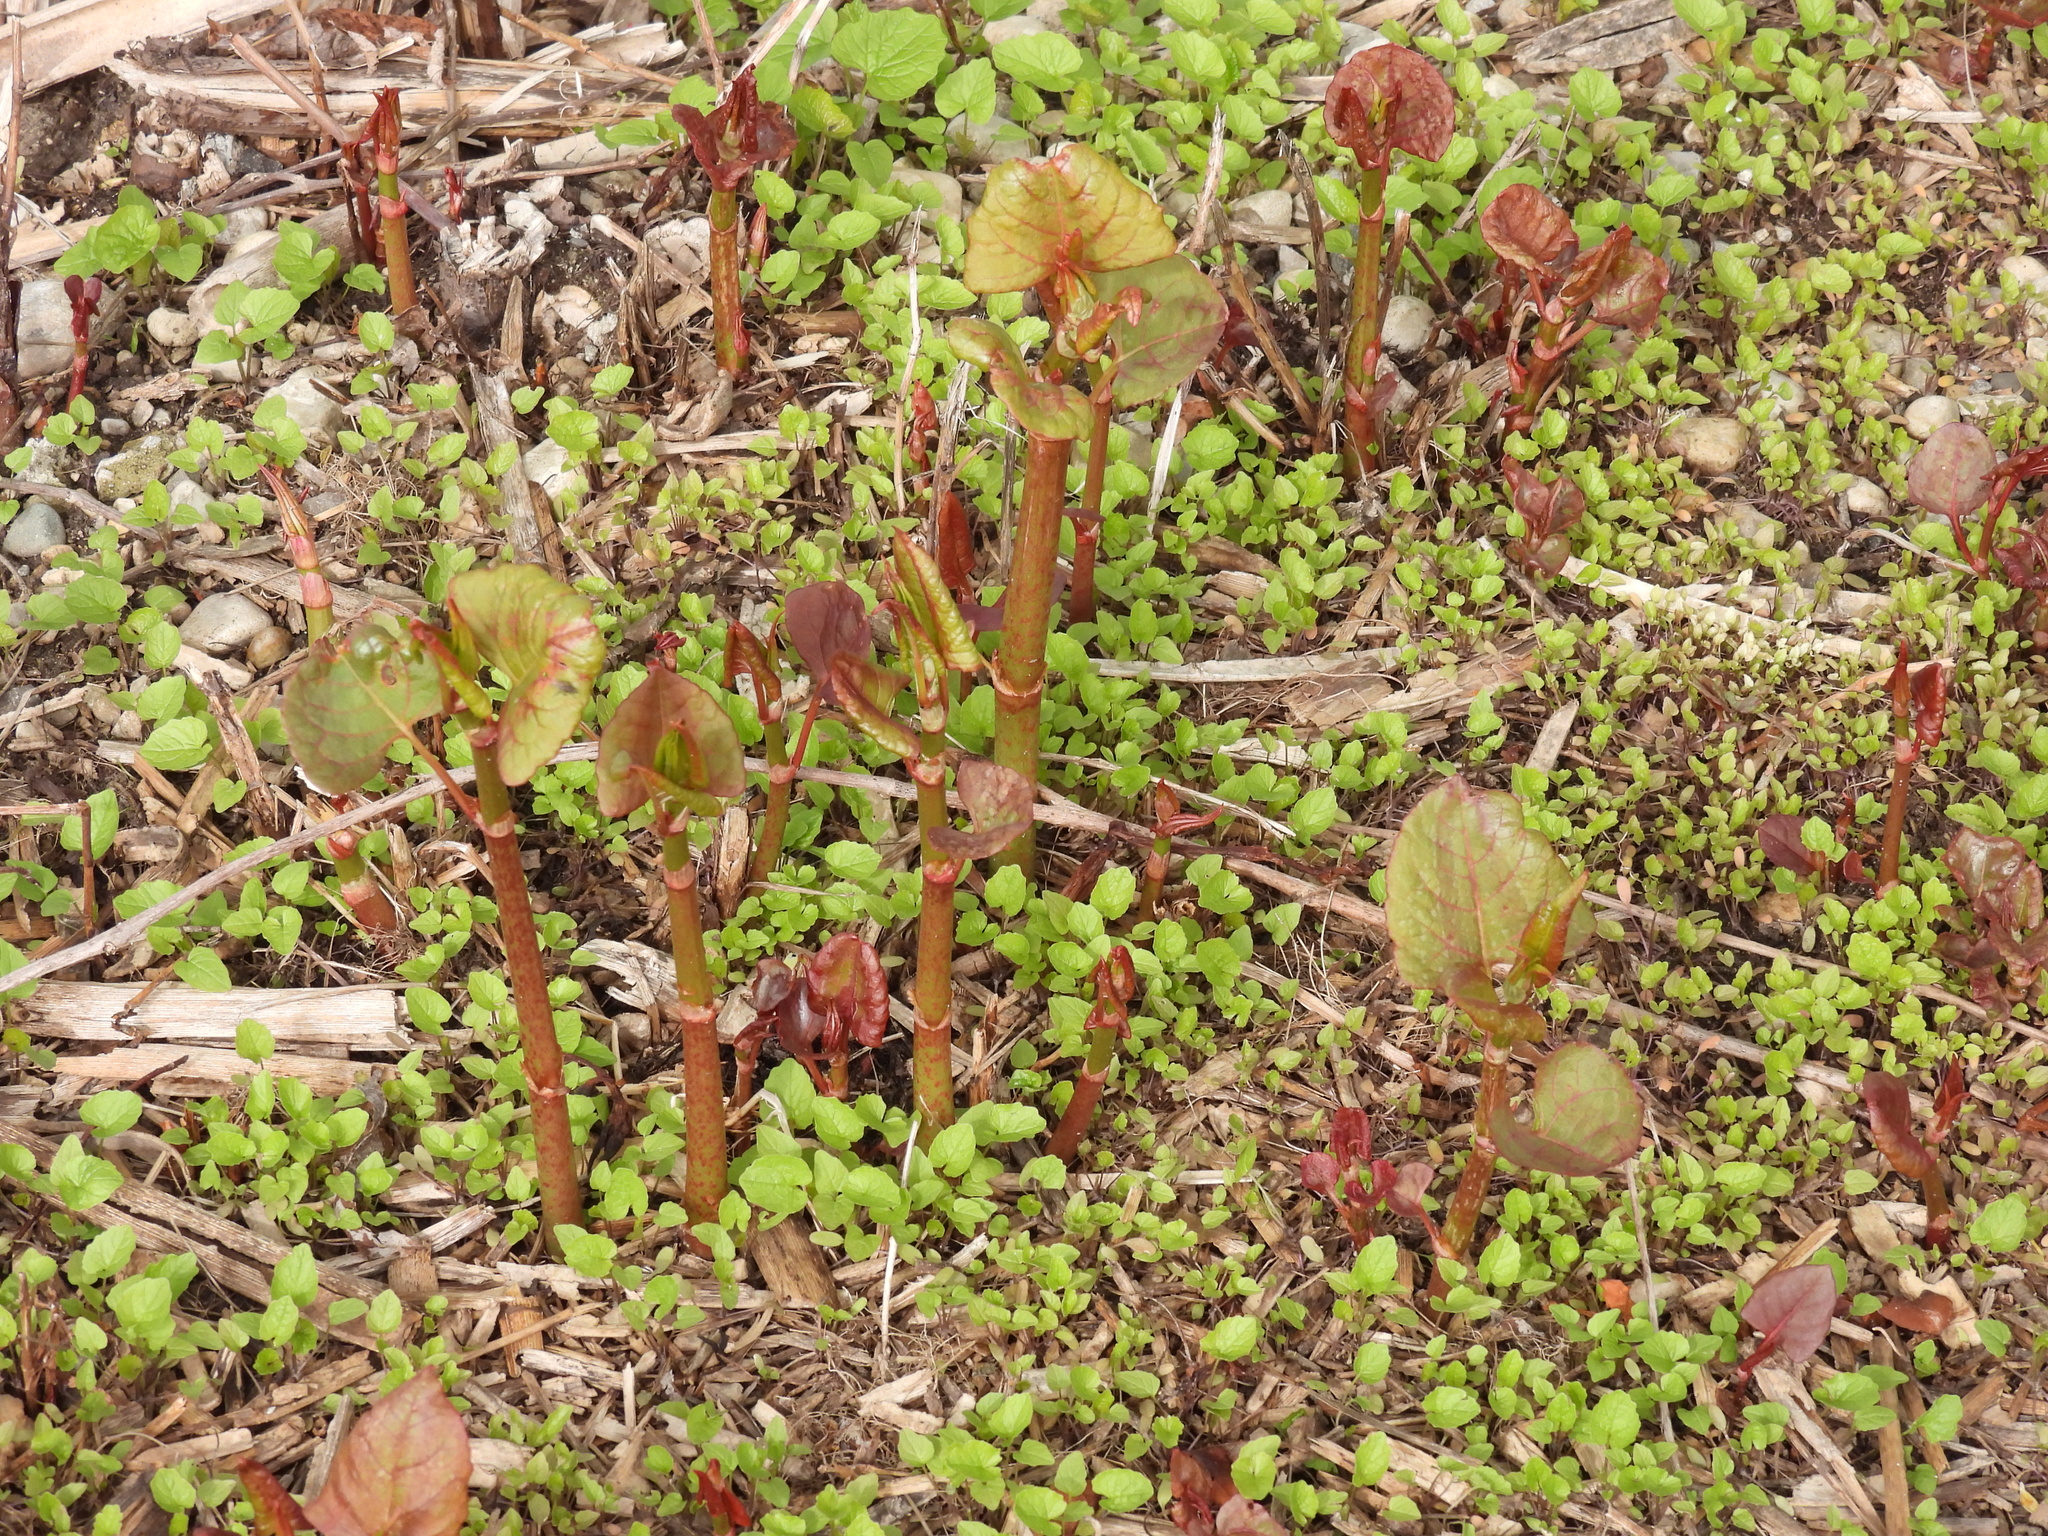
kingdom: Plantae
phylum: Tracheophyta
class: Magnoliopsida
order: Caryophyllales
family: Polygonaceae
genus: Reynoutria
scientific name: Reynoutria japonica
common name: Japanese knotweed
